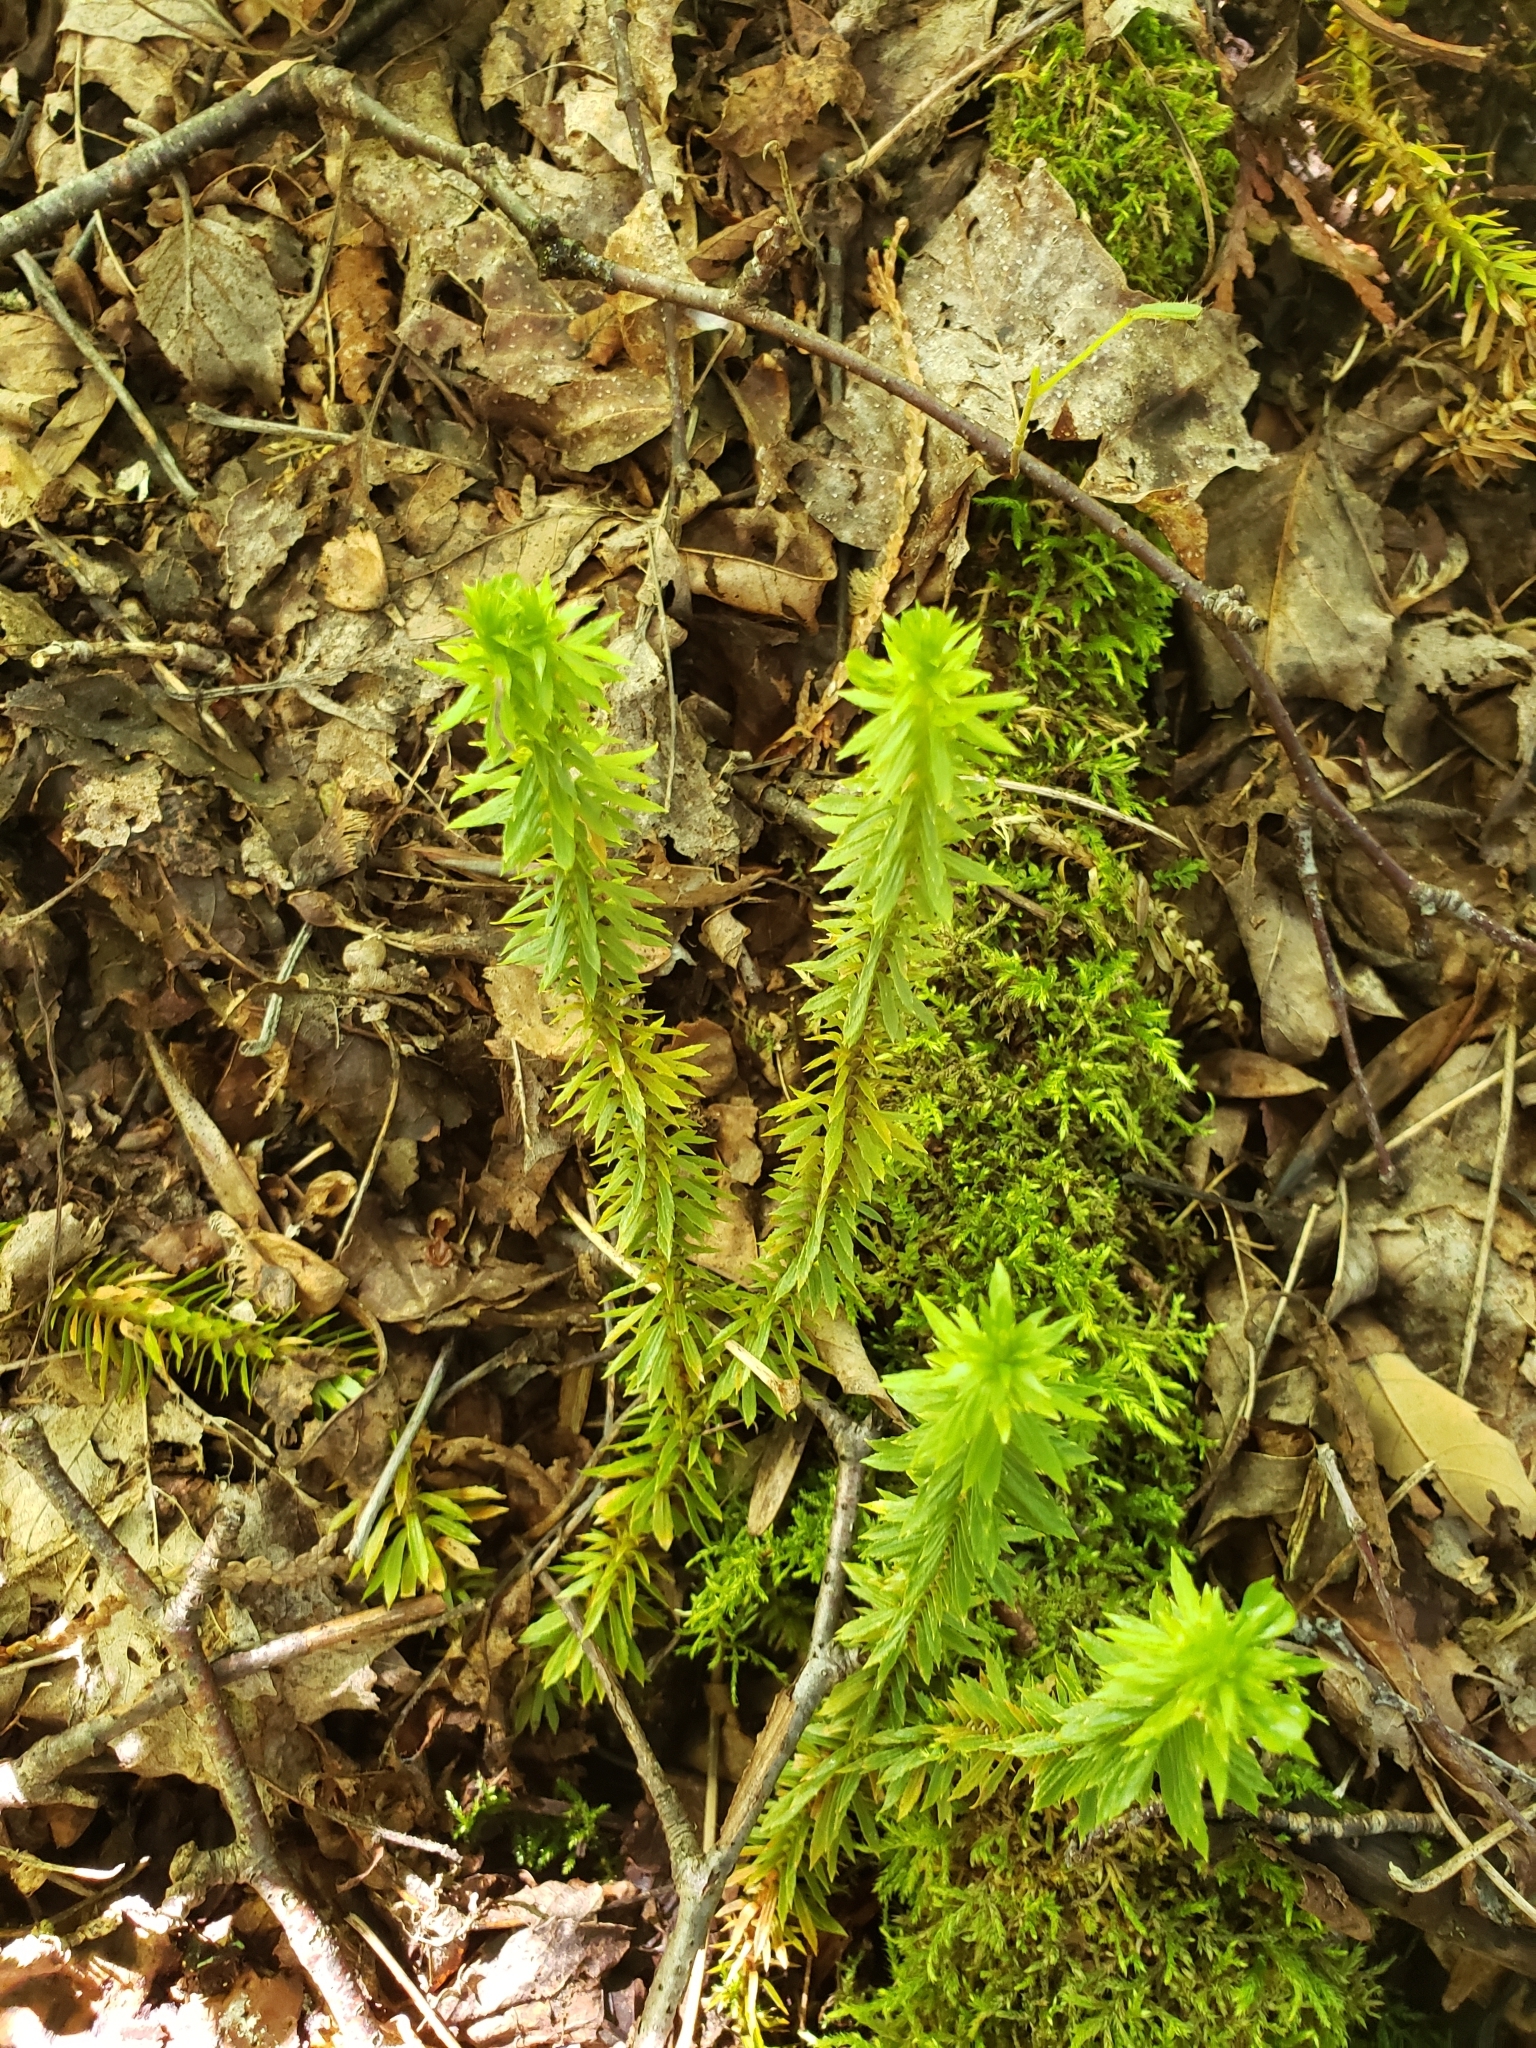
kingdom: Plantae
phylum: Tracheophyta
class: Lycopodiopsida
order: Lycopodiales
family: Lycopodiaceae
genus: Huperzia
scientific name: Huperzia lucidula
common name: Shining clubmoss
